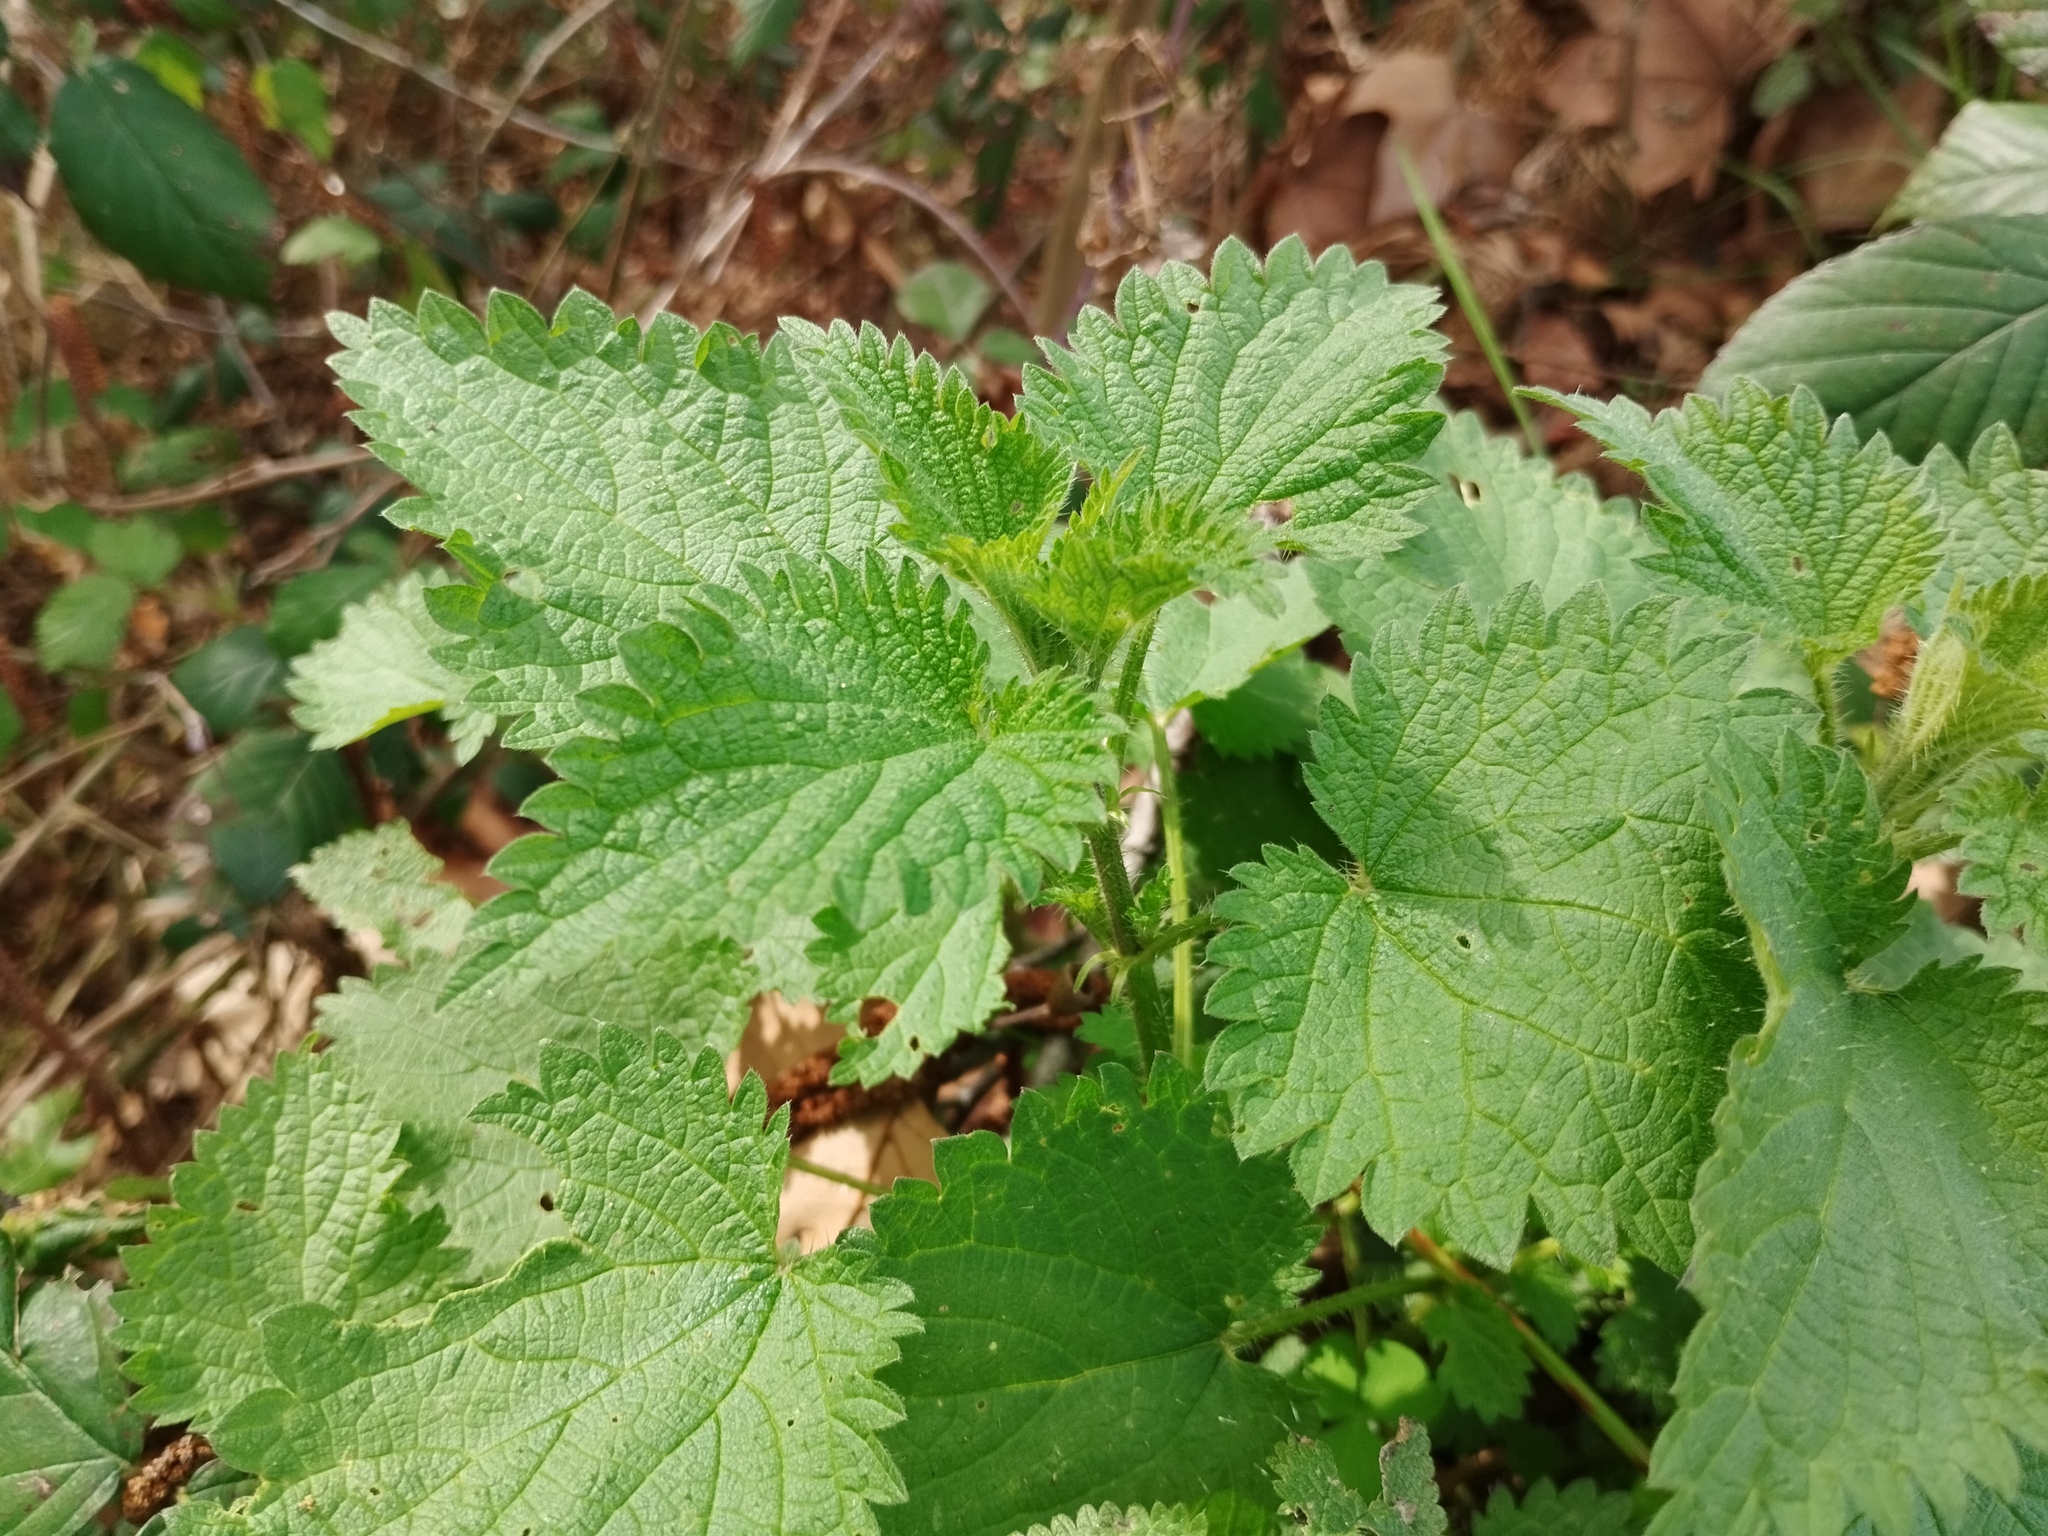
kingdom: Plantae
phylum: Tracheophyta
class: Magnoliopsida
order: Rosales
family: Urticaceae
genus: Urtica
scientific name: Urtica dioica
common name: Common nettle
